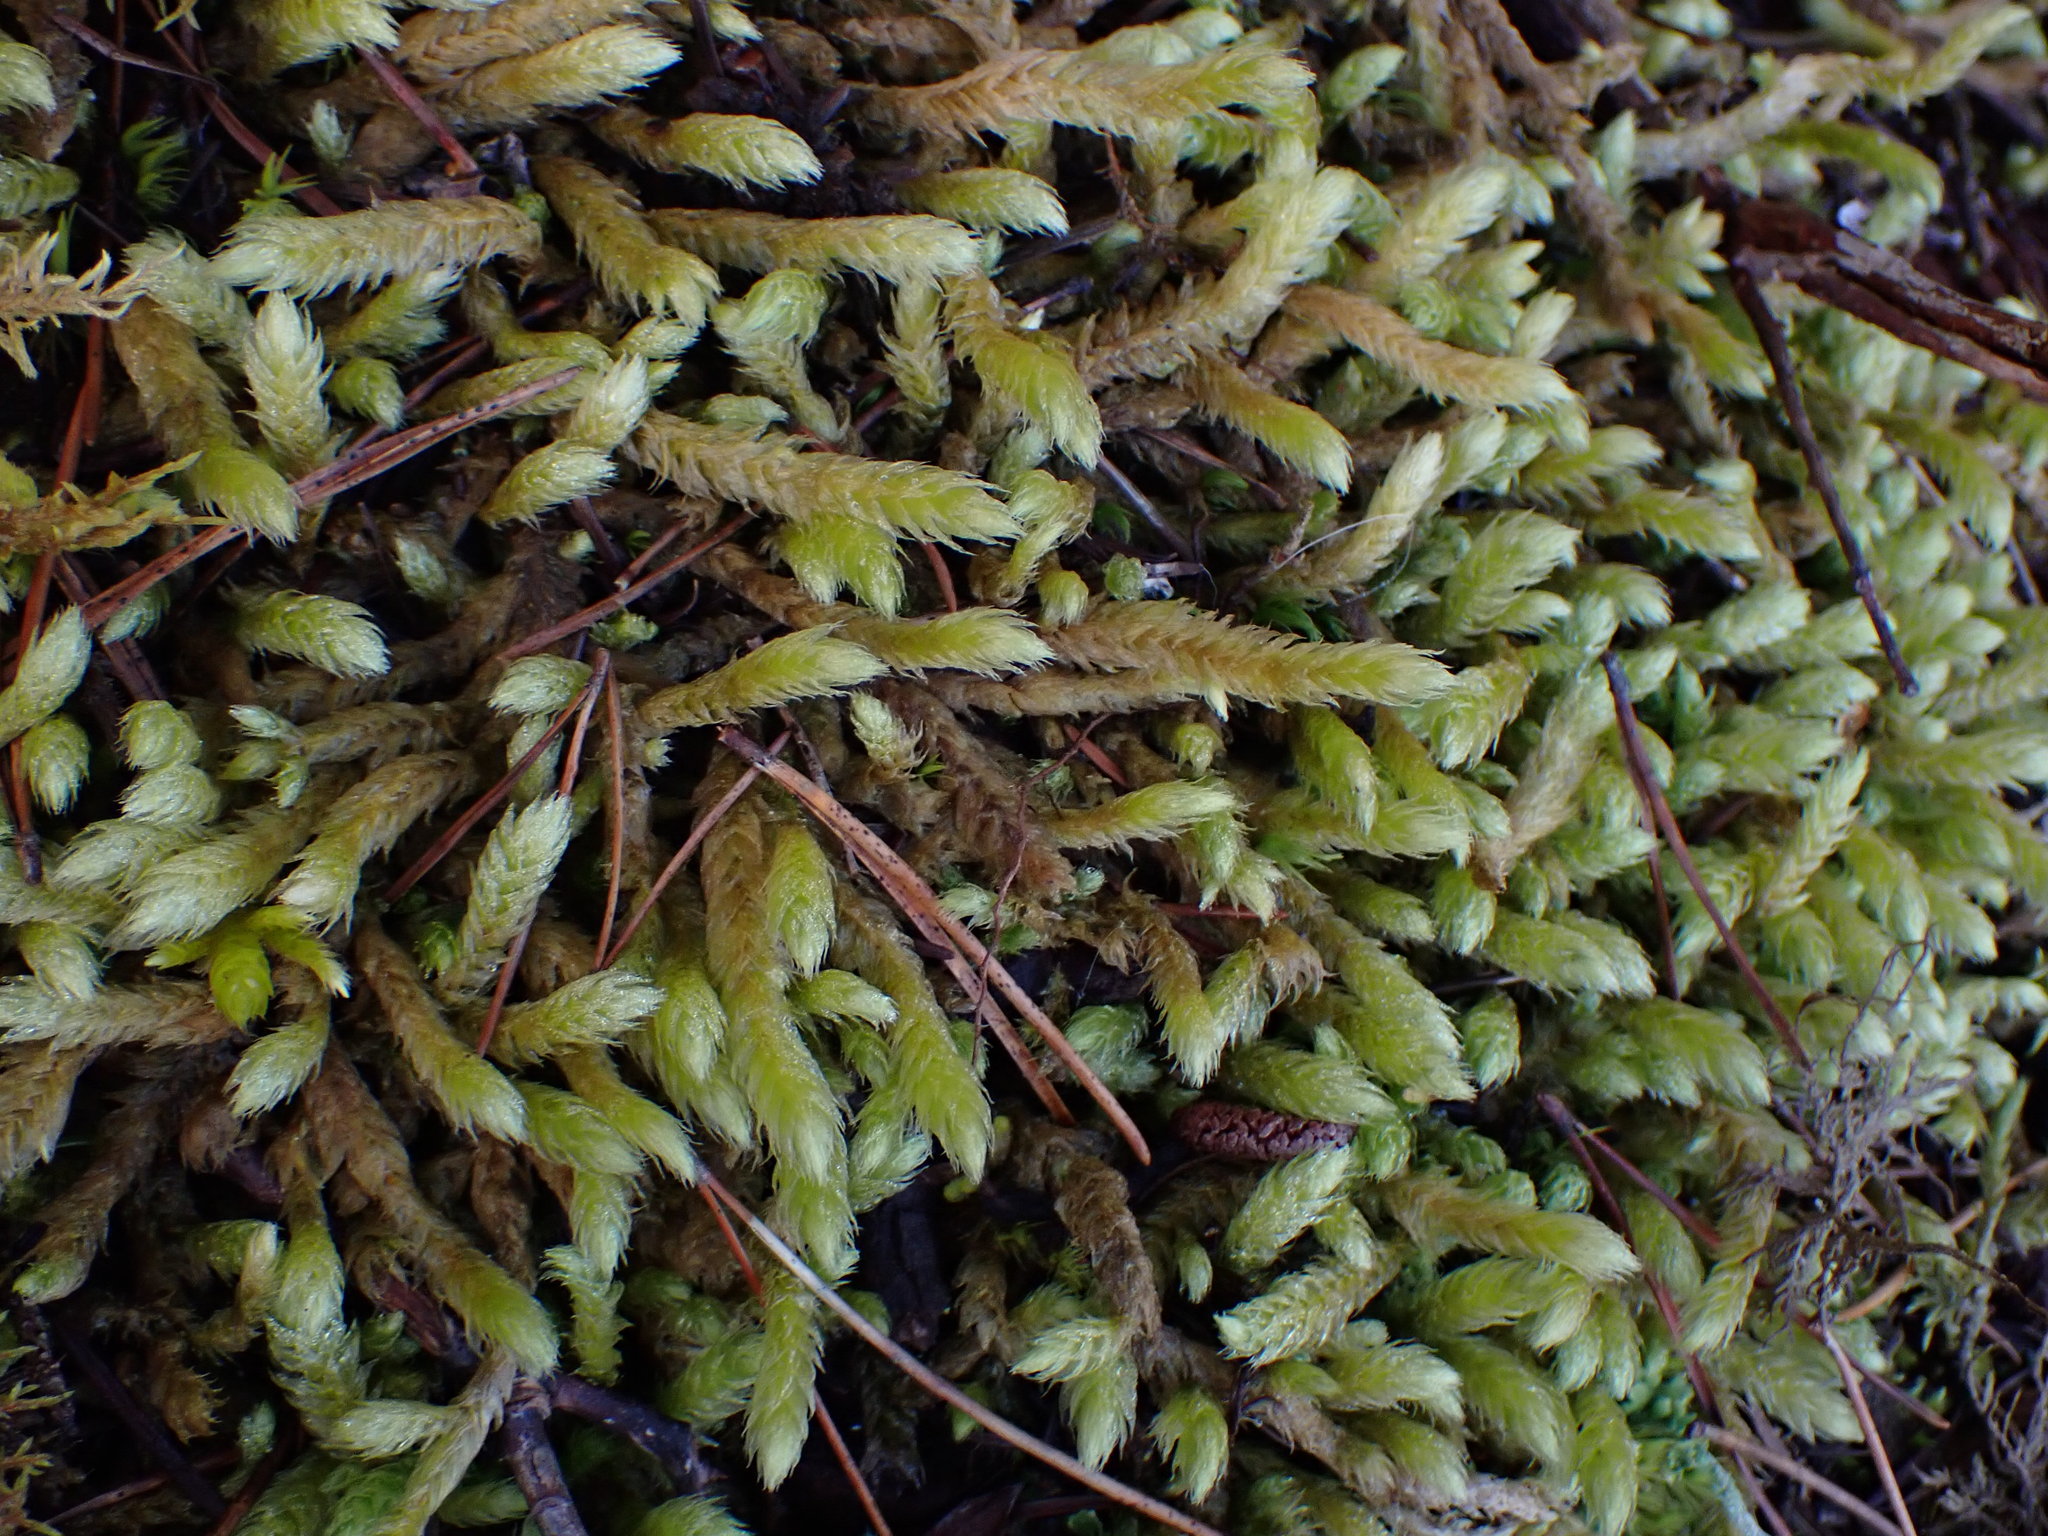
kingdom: Plantae
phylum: Bryophyta
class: Bryopsida
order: Hypnales
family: Hylocomiaceae
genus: Rhytidiopsis
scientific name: Rhytidiopsis robusta
